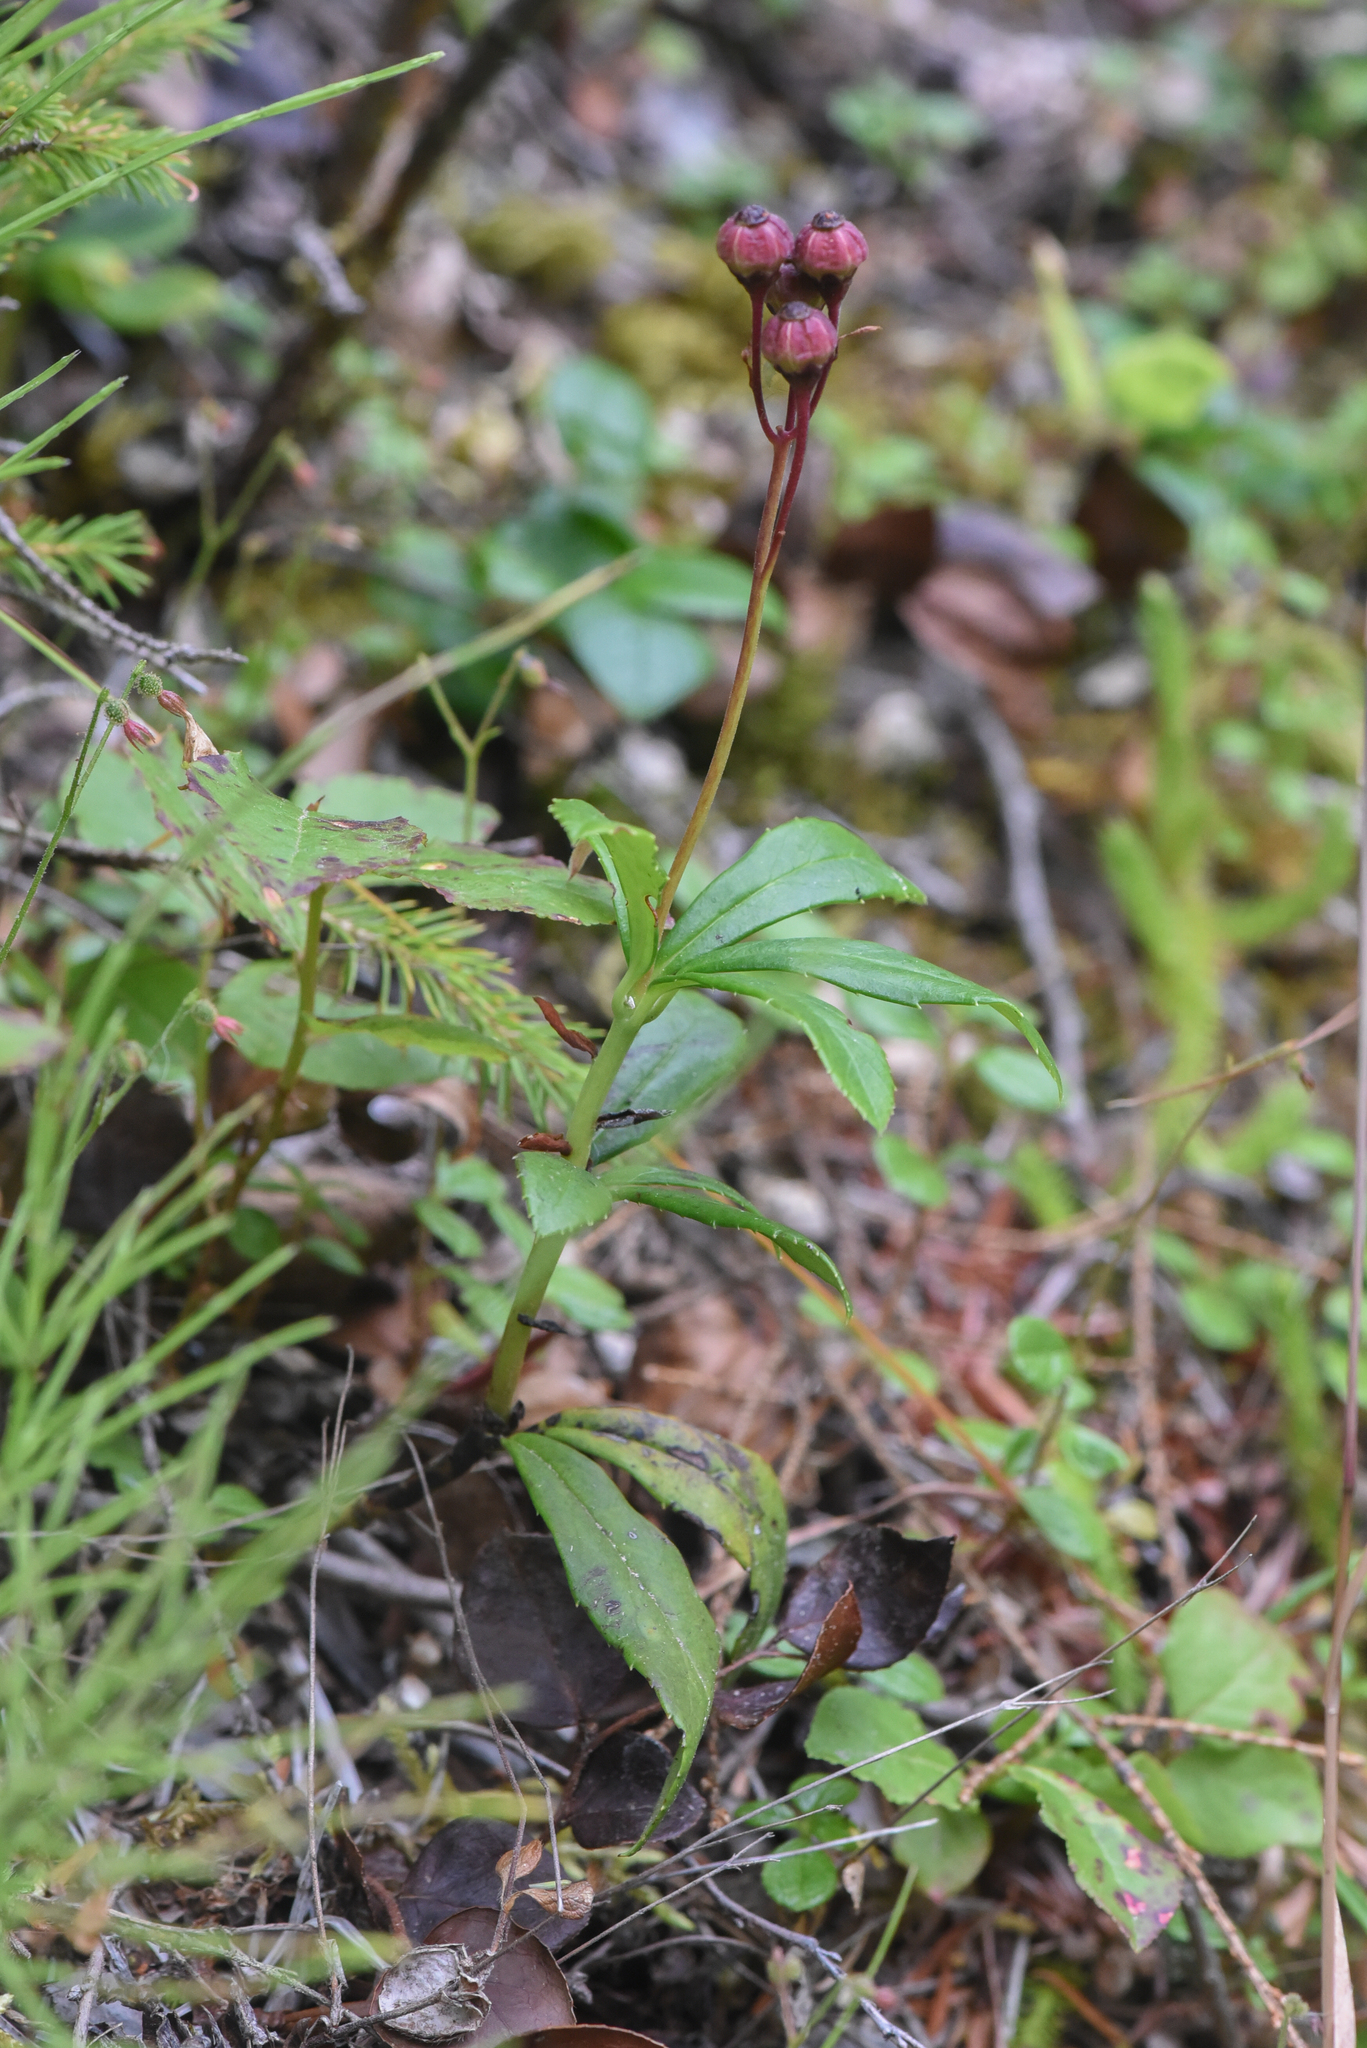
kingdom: Plantae
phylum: Tracheophyta
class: Magnoliopsida
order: Ericales
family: Ericaceae
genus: Chimaphila
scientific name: Chimaphila umbellata
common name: Pipsissewa
